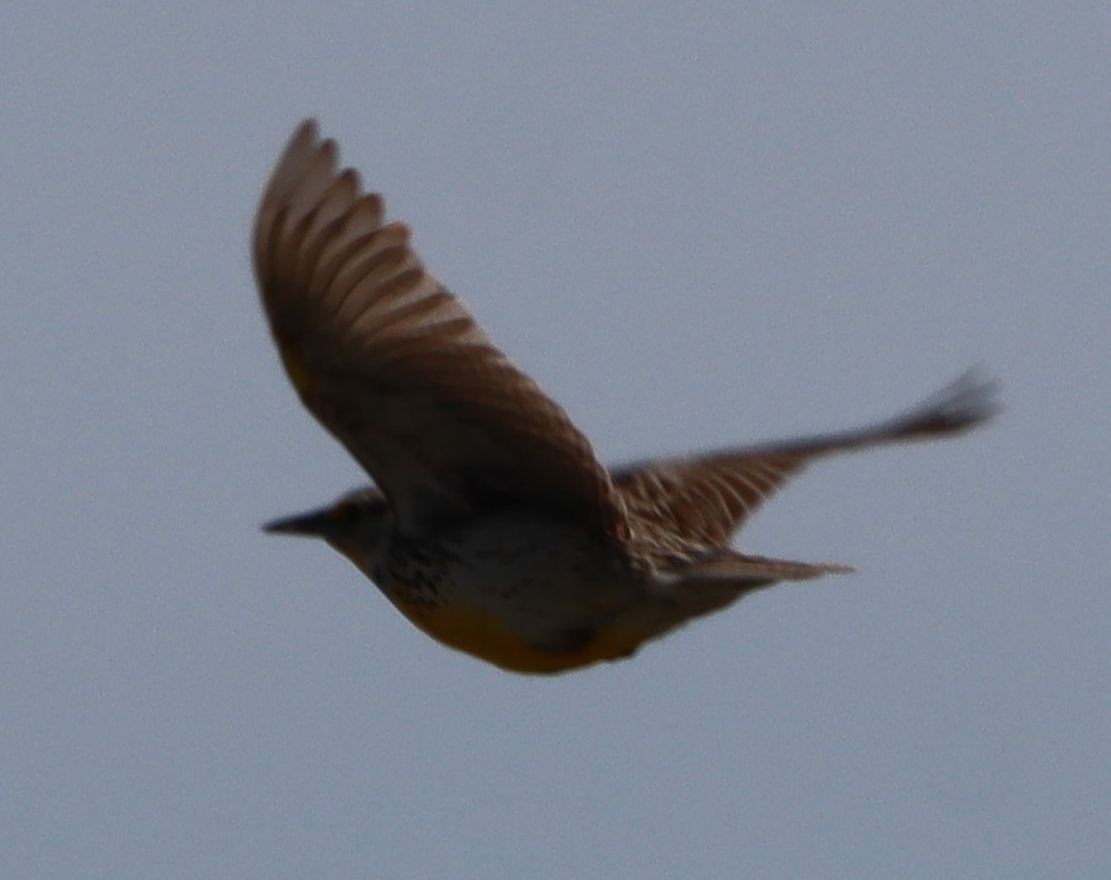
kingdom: Animalia
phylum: Chordata
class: Aves
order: Passeriformes
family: Icteridae
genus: Sturnella
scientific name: Sturnella neglecta
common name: Western meadowlark
